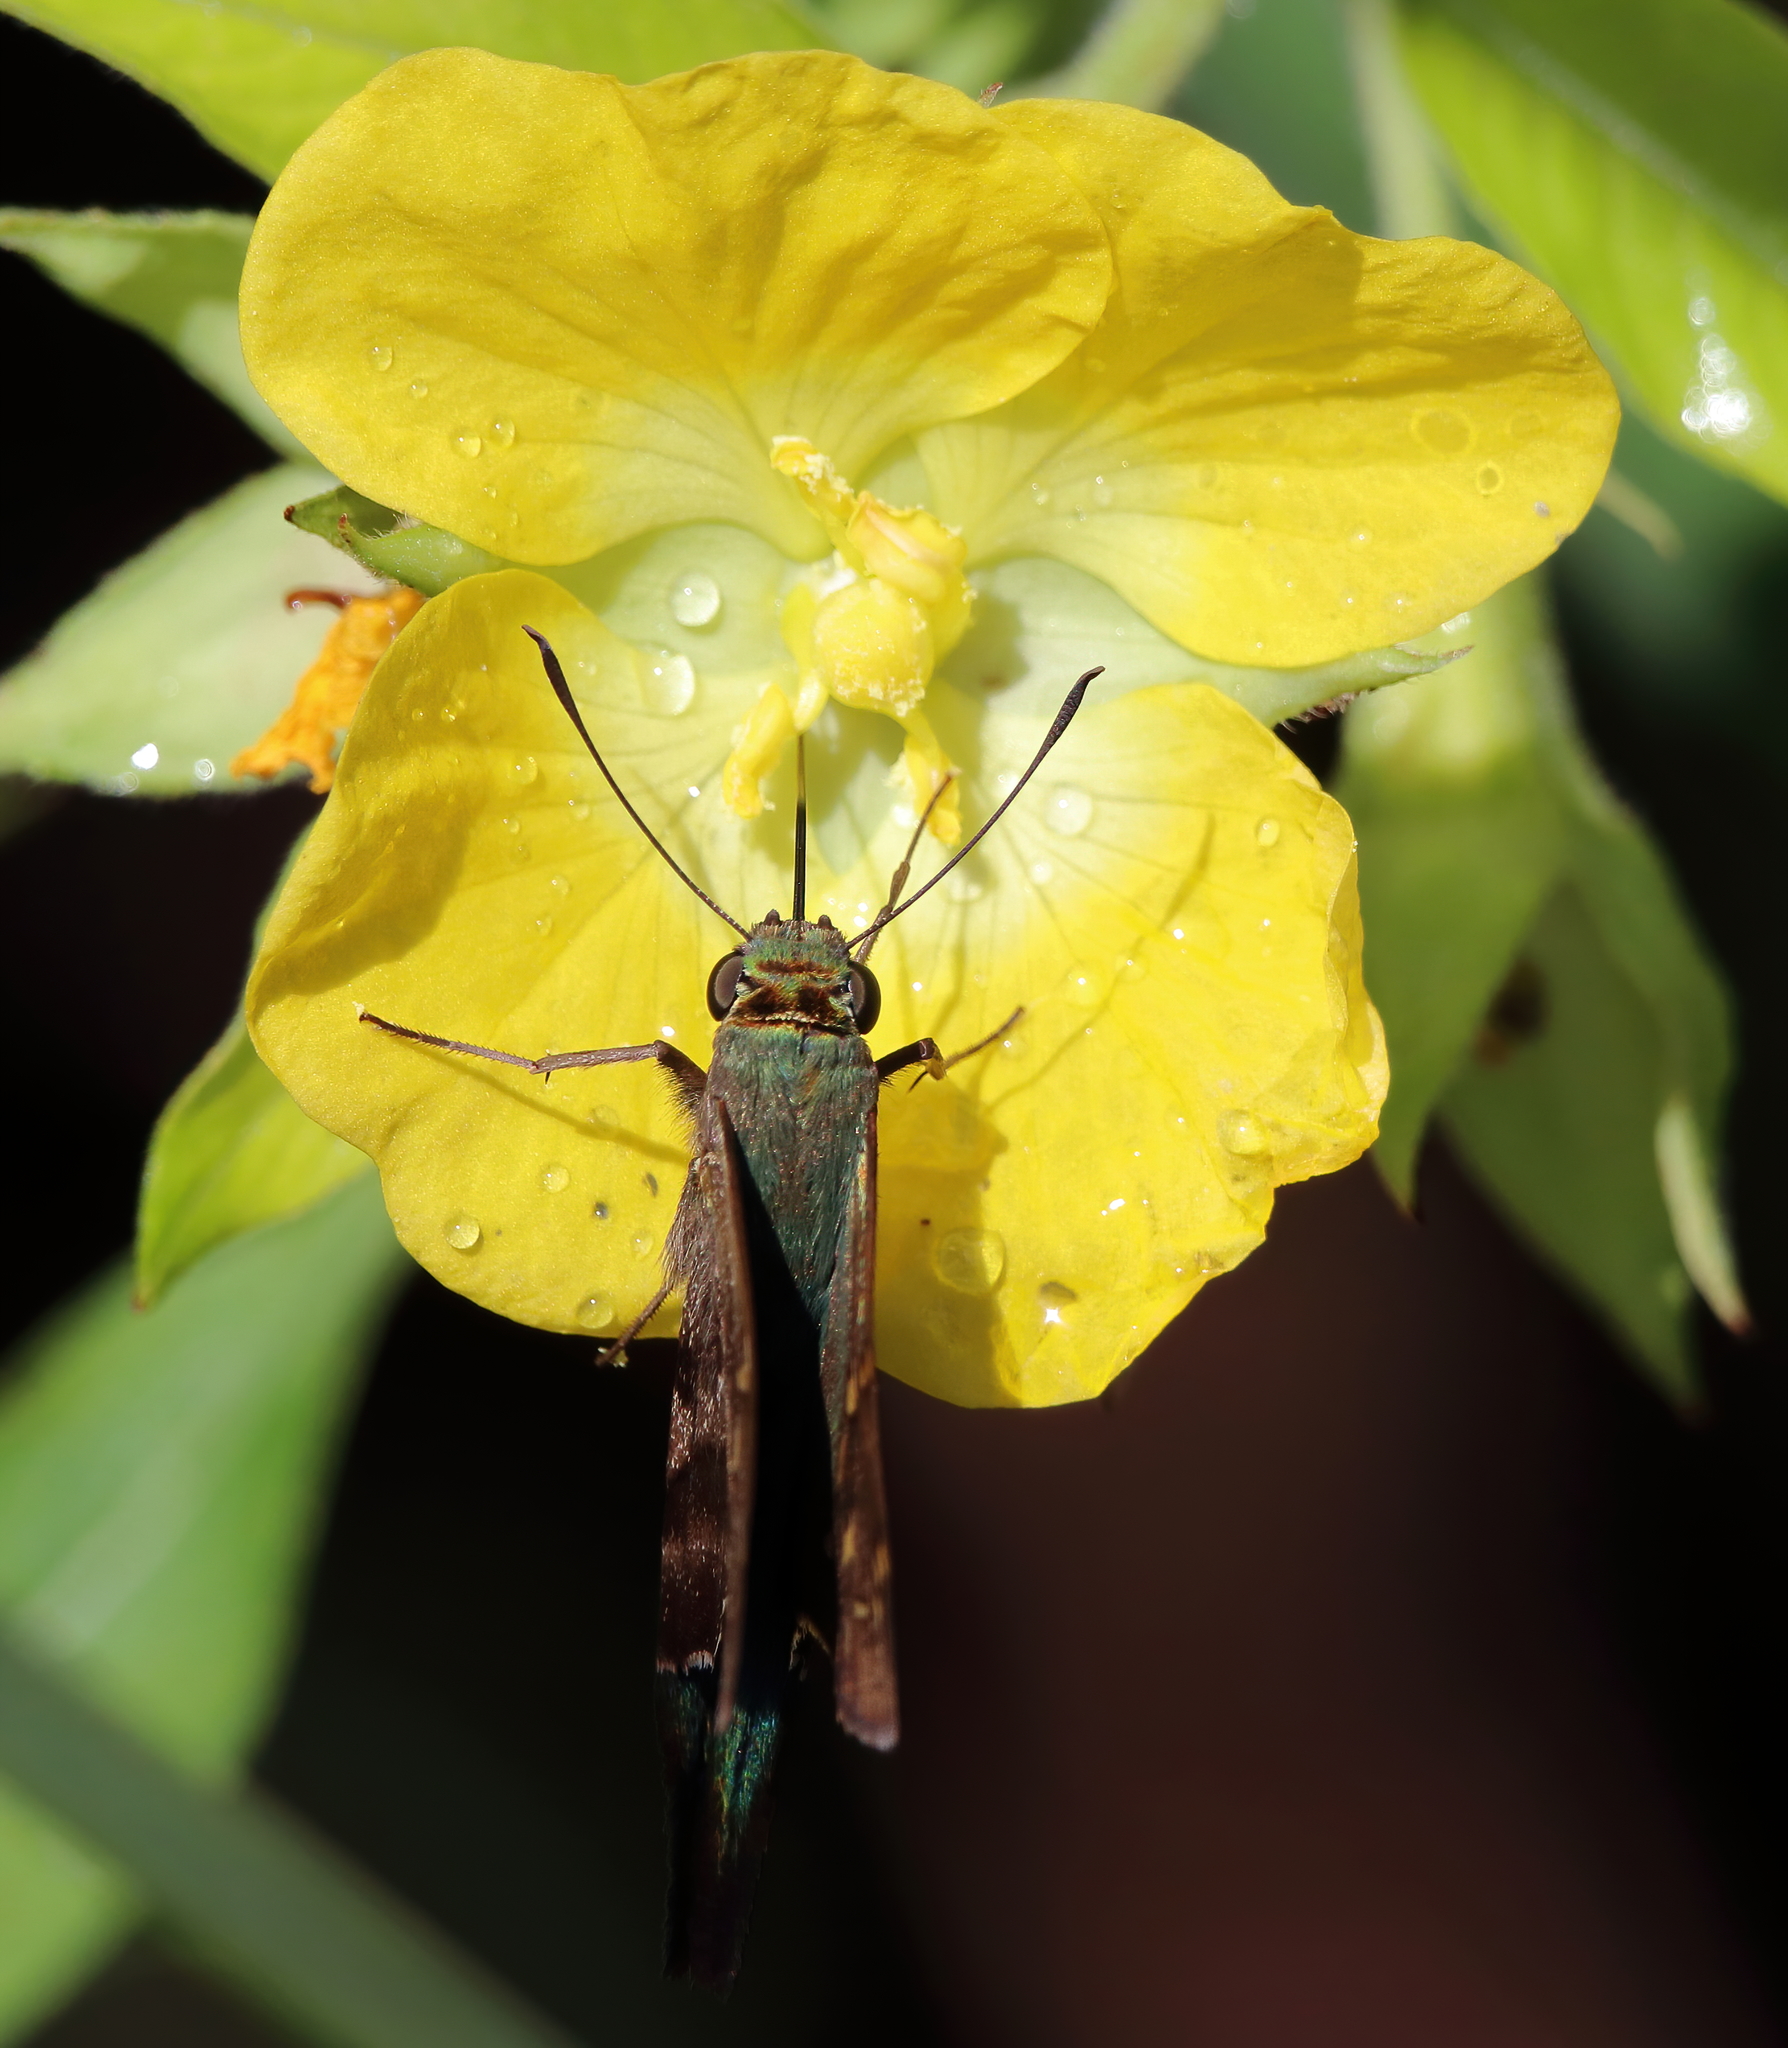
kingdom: Animalia
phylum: Arthropoda
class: Insecta
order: Lepidoptera
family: Hesperiidae
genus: Urbanus
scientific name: Urbanus proteus
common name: Long-tailed skipper
